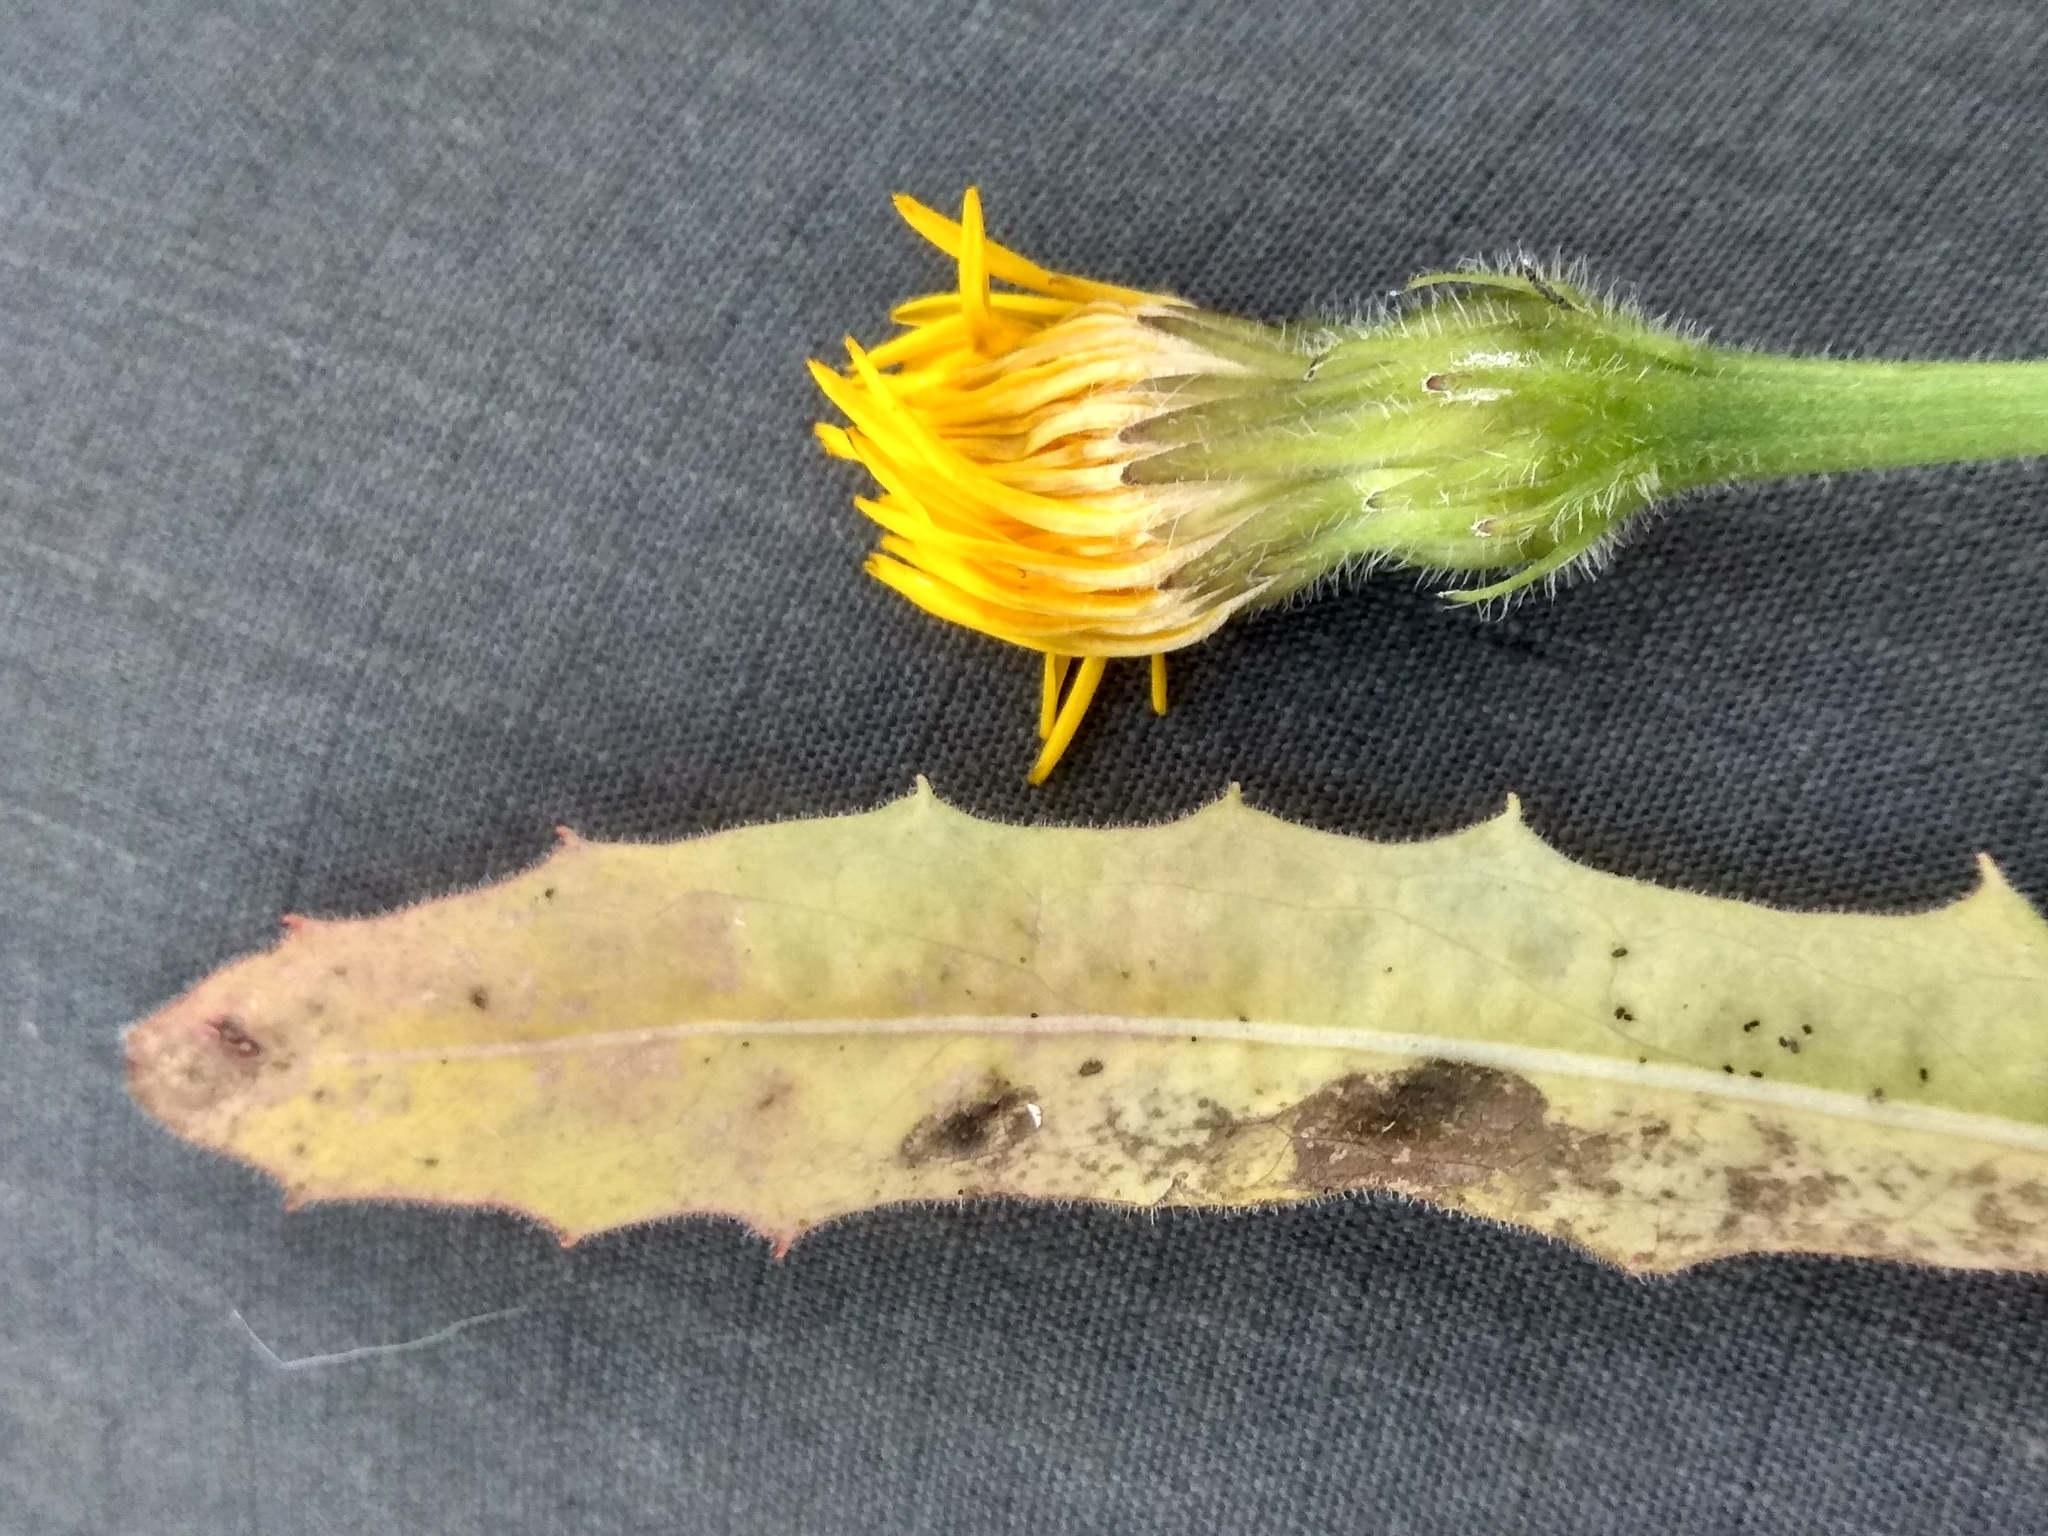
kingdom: Plantae
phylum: Tracheophyta
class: Magnoliopsida
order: Asterales
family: Asteraceae
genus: Leontodon
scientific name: Leontodon hispidus
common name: Rough hawkbit
